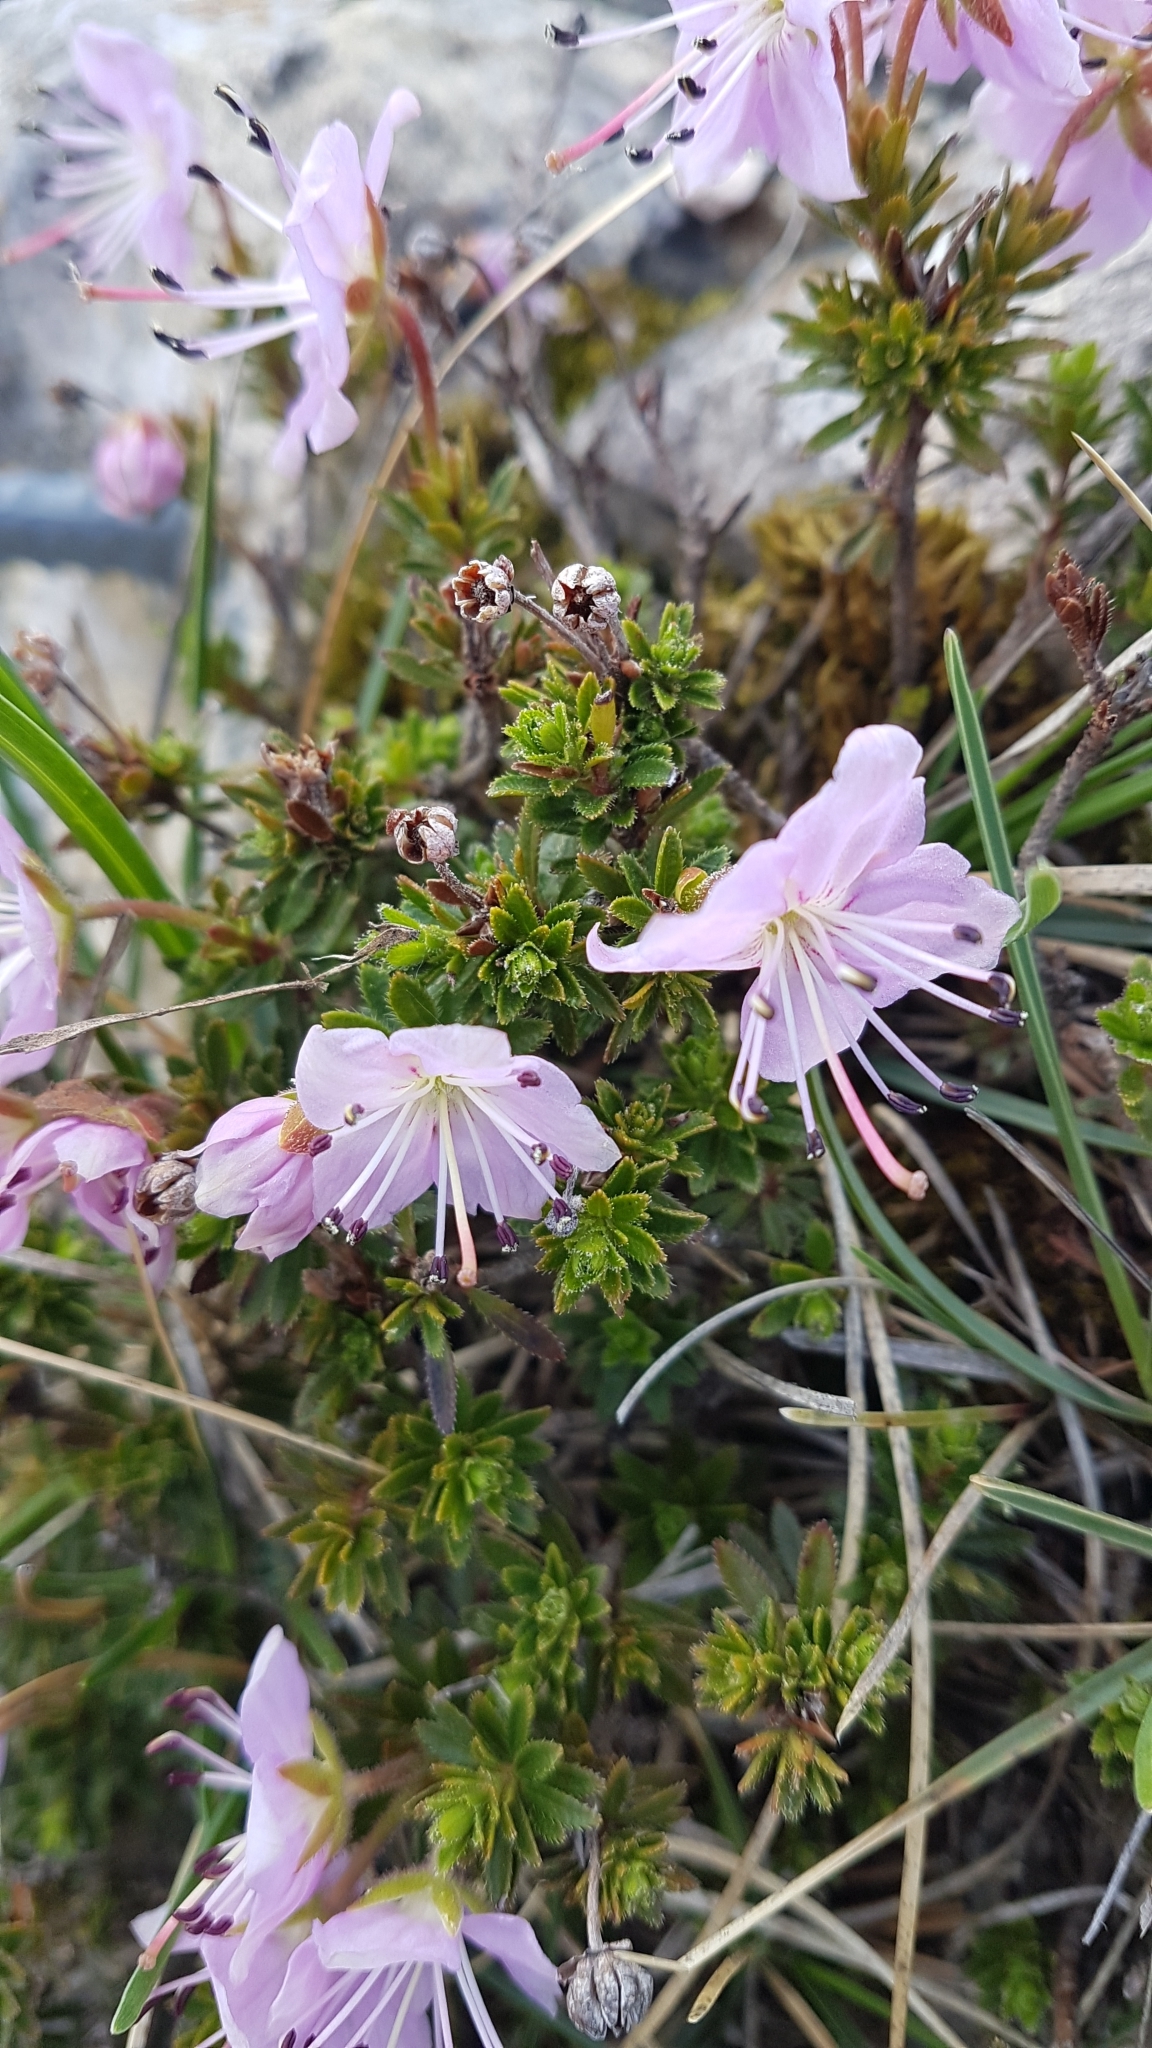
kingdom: Plantae
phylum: Tracheophyta
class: Magnoliopsida
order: Ericales
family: Ericaceae
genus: Rhodothamnus
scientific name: Rhodothamnus chamaecistus
